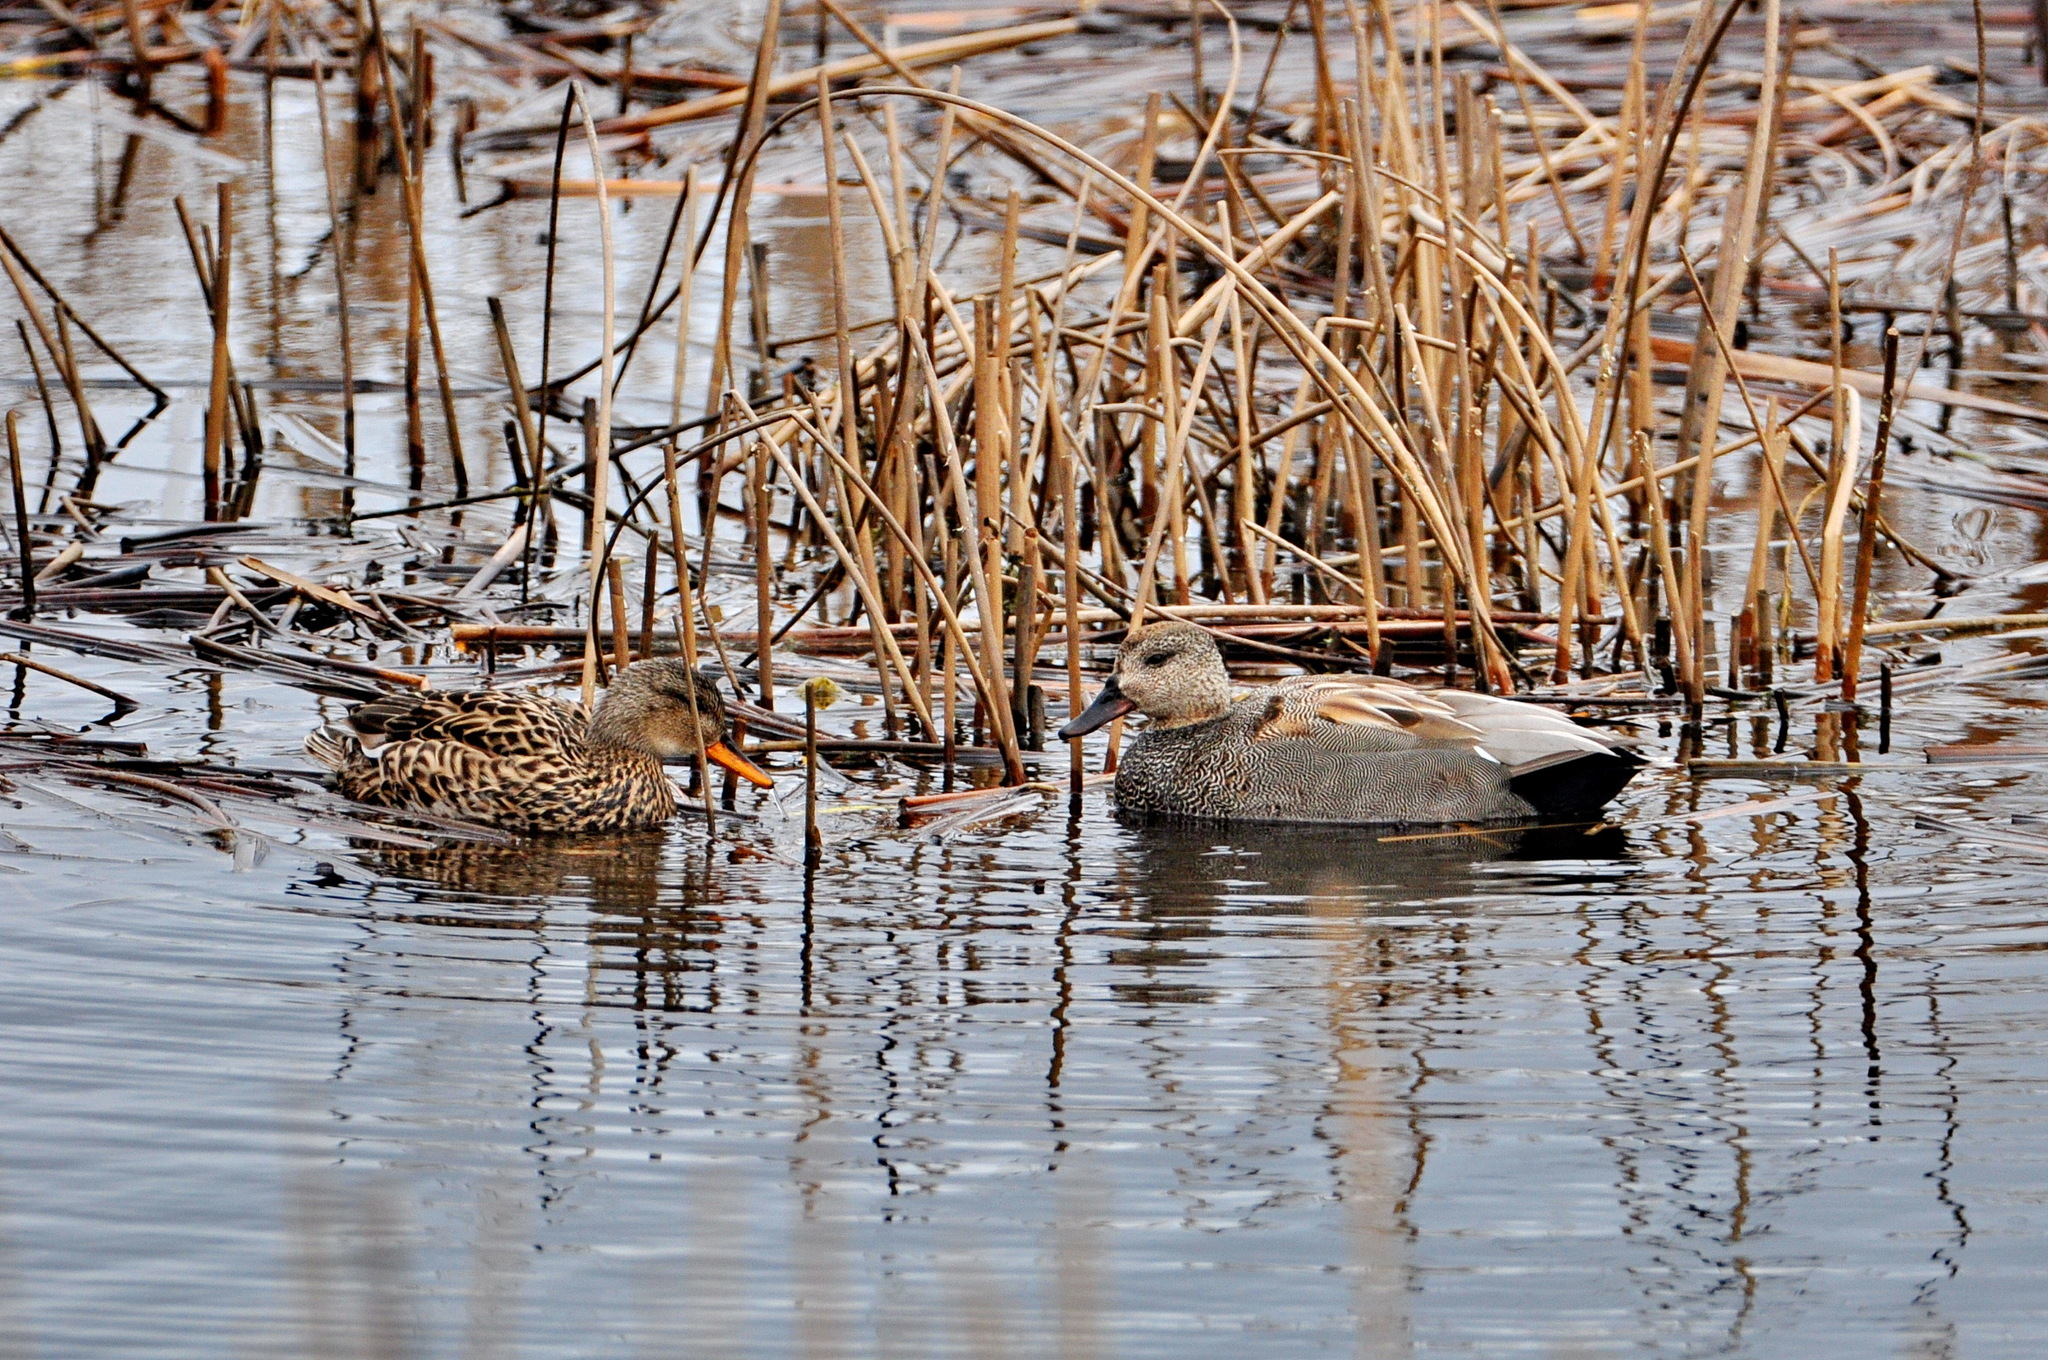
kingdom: Animalia
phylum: Chordata
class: Aves
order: Anseriformes
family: Anatidae
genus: Mareca
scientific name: Mareca strepera
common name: Gadwall
